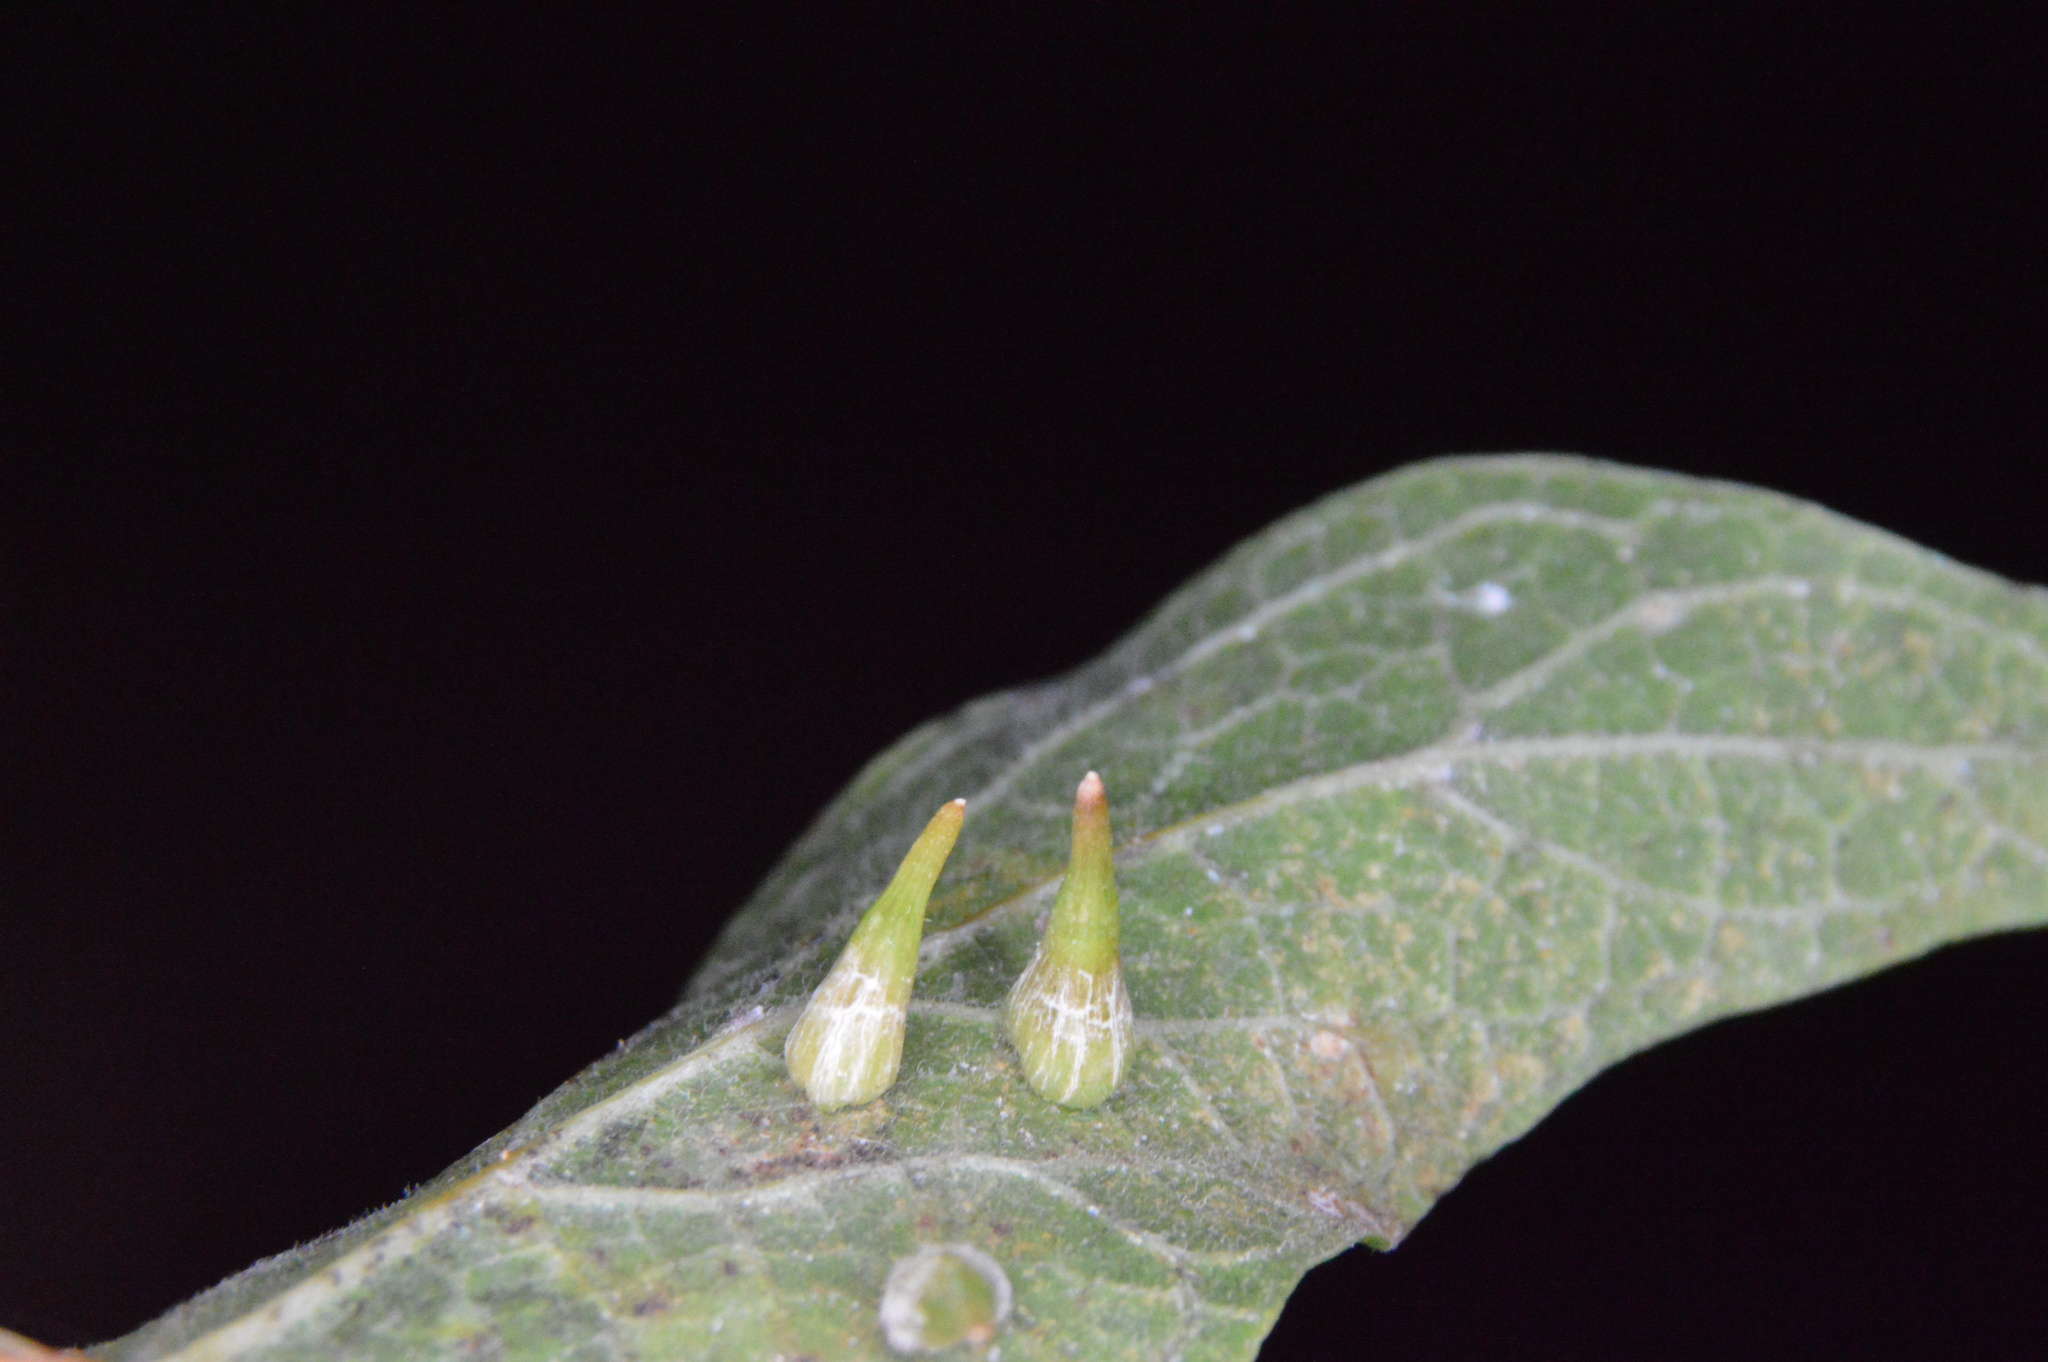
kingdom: Animalia
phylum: Arthropoda
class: Insecta
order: Diptera
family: Cecidomyiidae
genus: Celticecis
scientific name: Celticecis subulata
